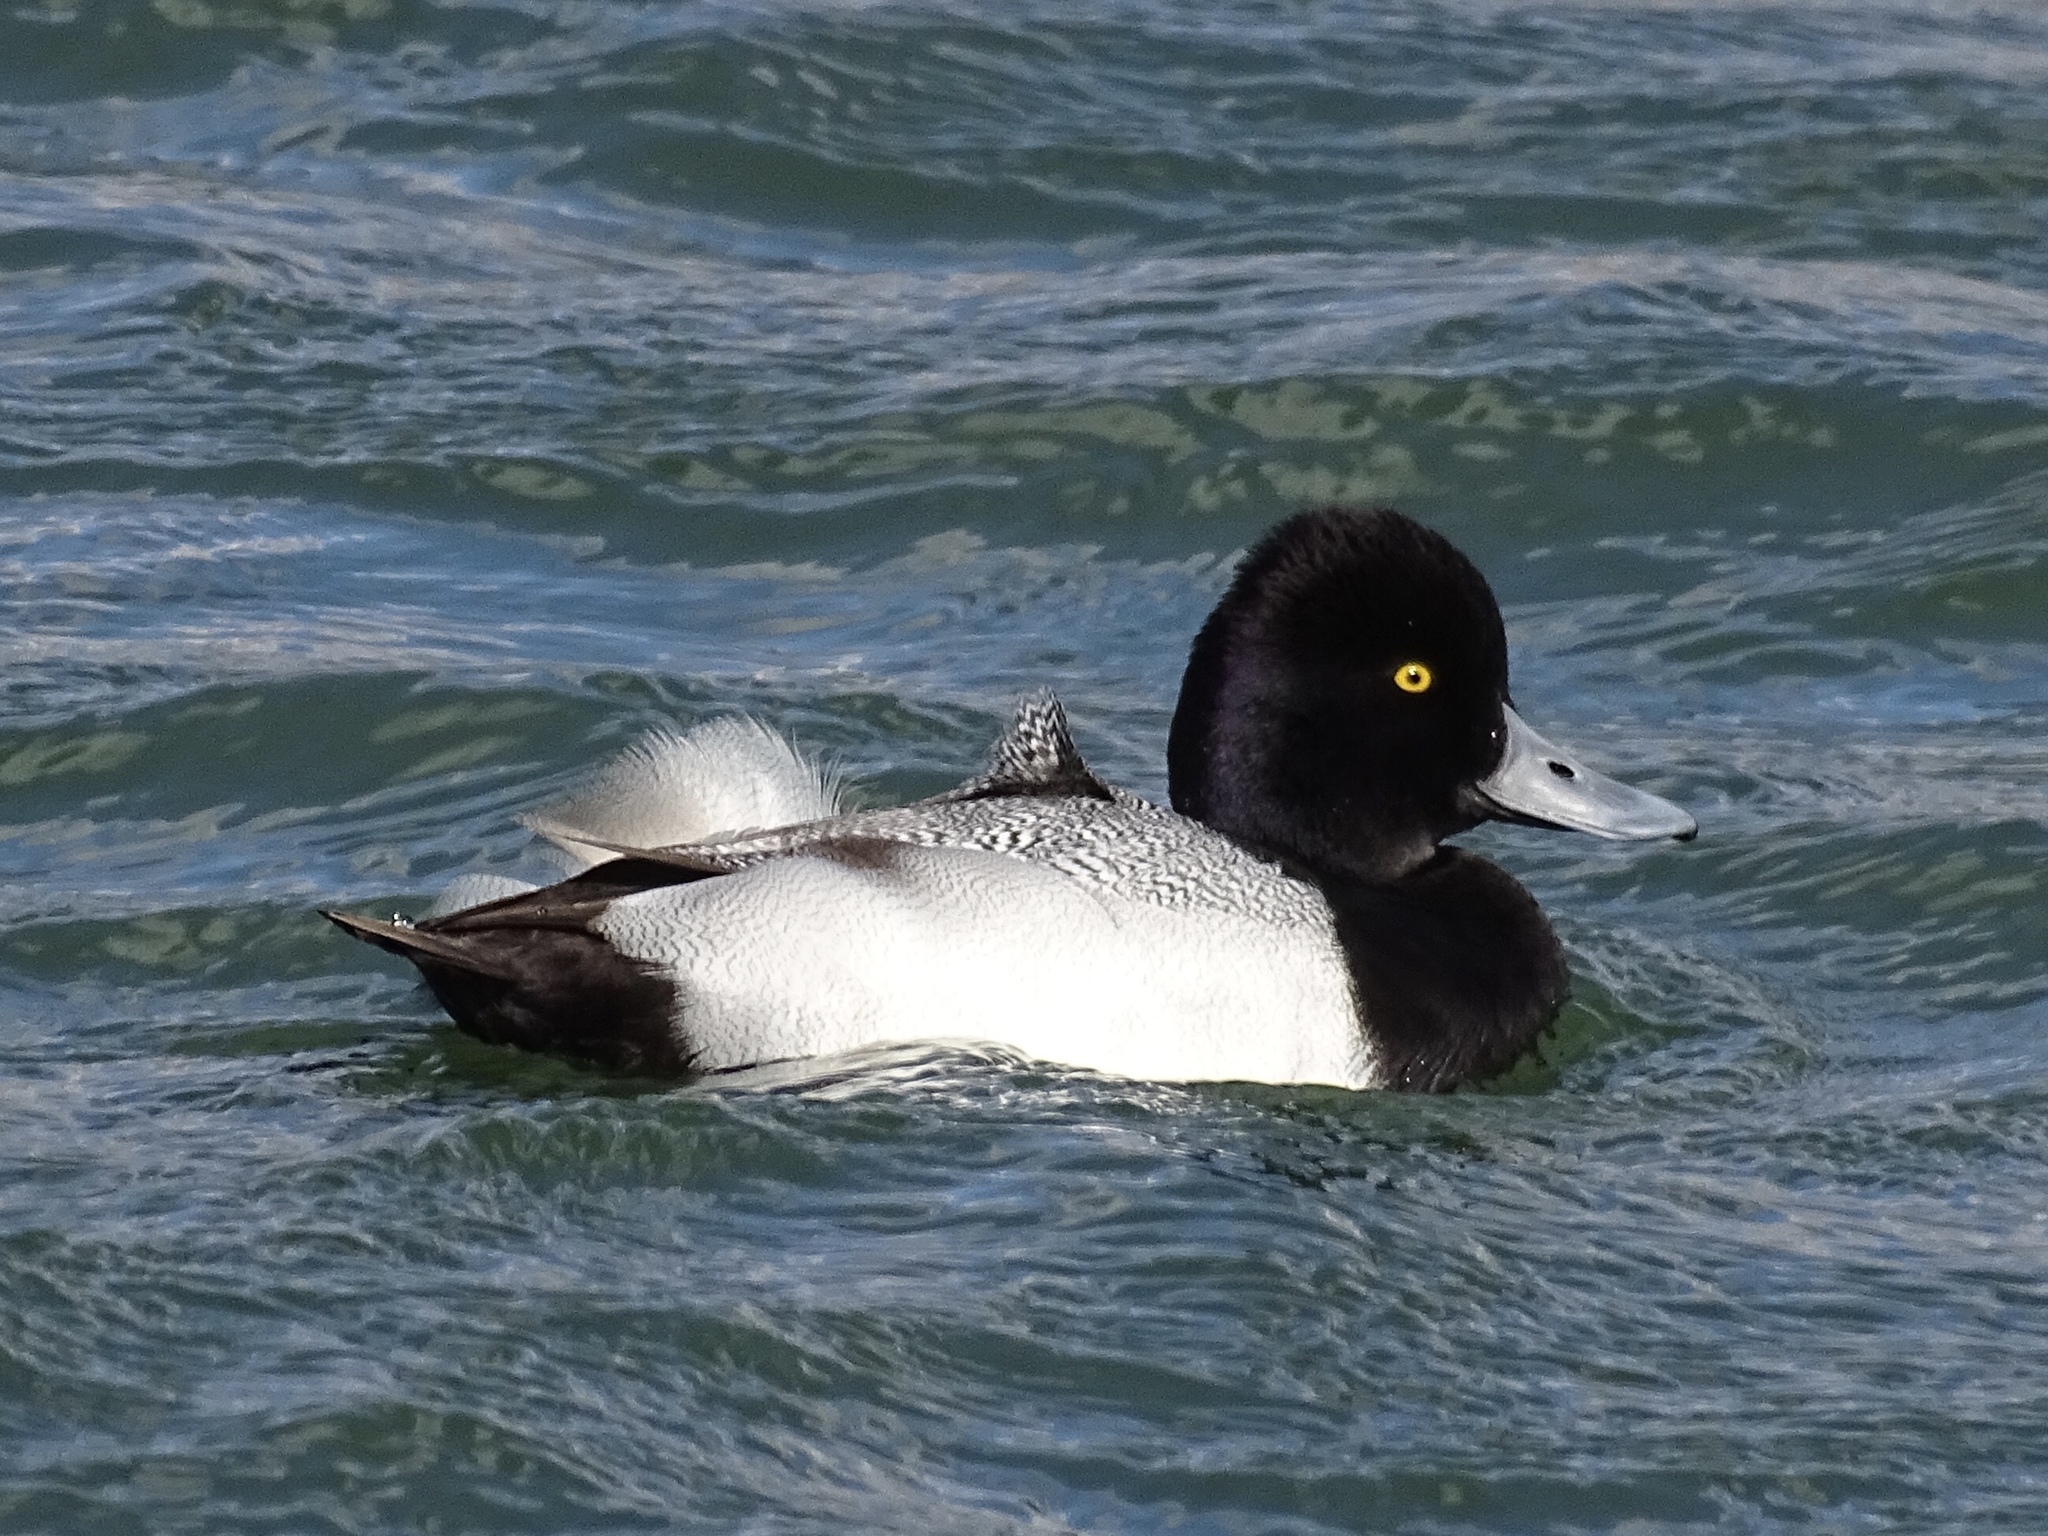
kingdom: Animalia
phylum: Chordata
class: Aves
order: Anseriformes
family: Anatidae
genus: Aythya
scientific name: Aythya affinis
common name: Lesser scaup
